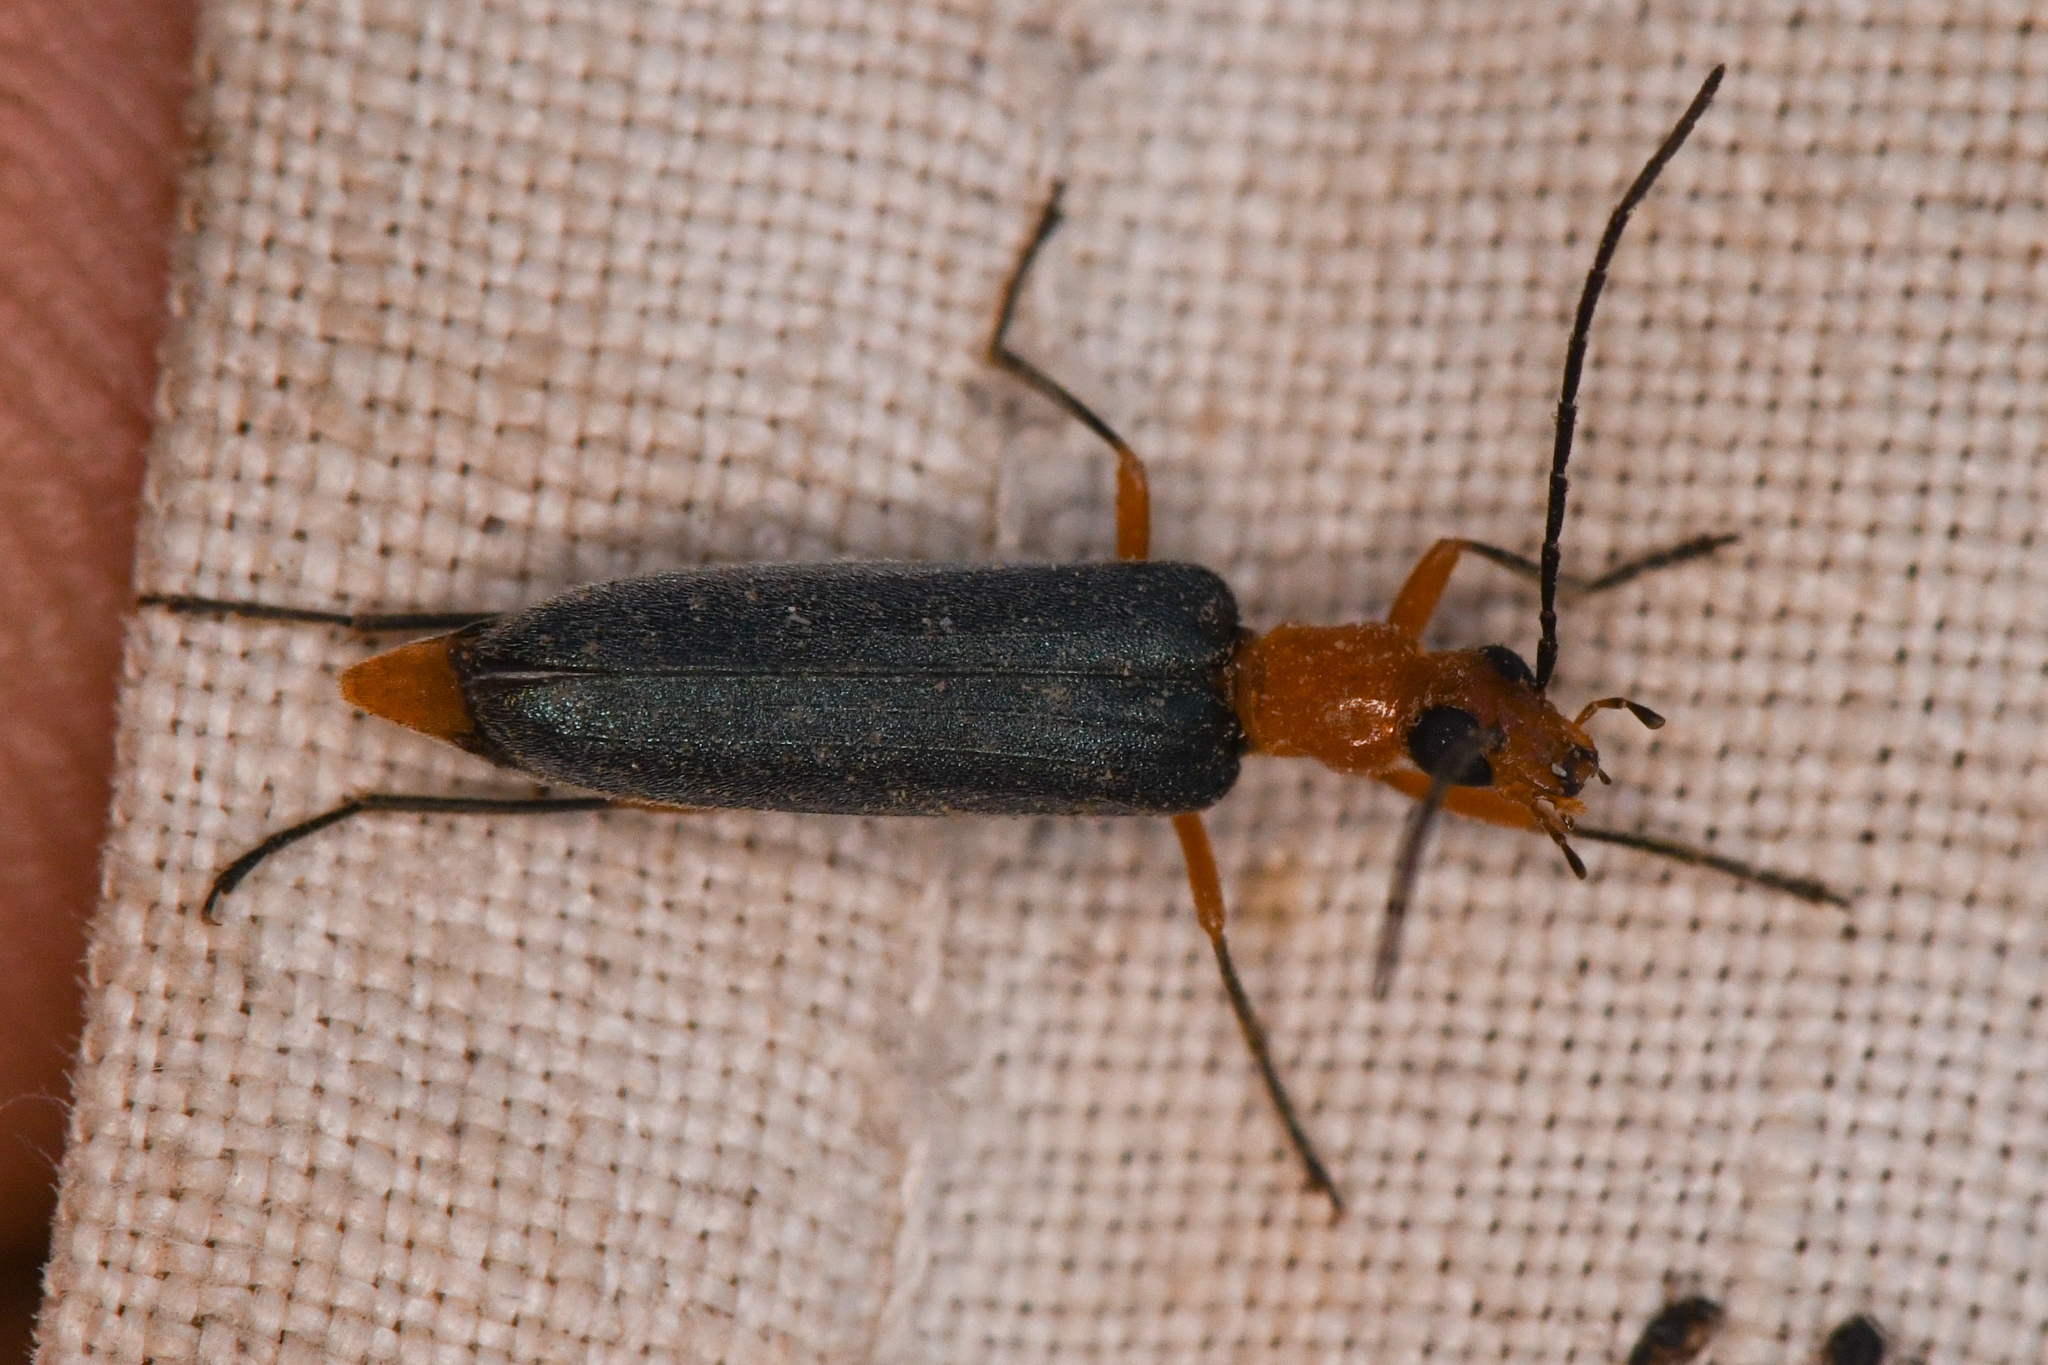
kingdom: Animalia
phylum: Arthropoda
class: Insecta
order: Coleoptera
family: Oedemeridae
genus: Nacerdes
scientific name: Nacerdes
